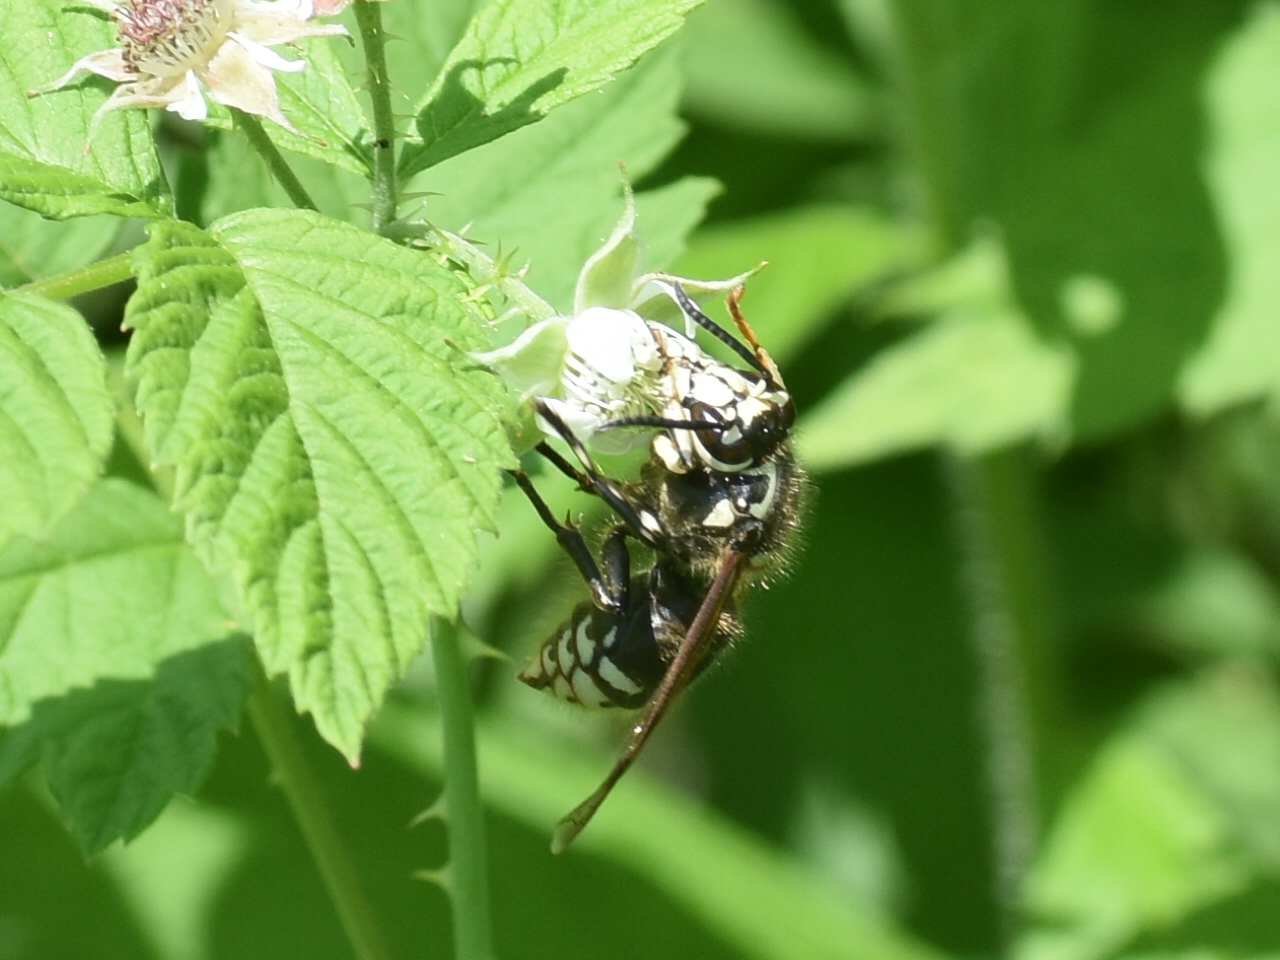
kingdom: Animalia
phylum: Arthropoda
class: Insecta
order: Hymenoptera
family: Vespidae
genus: Dolichovespula
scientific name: Dolichovespula maculata
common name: Bald-faced hornet
